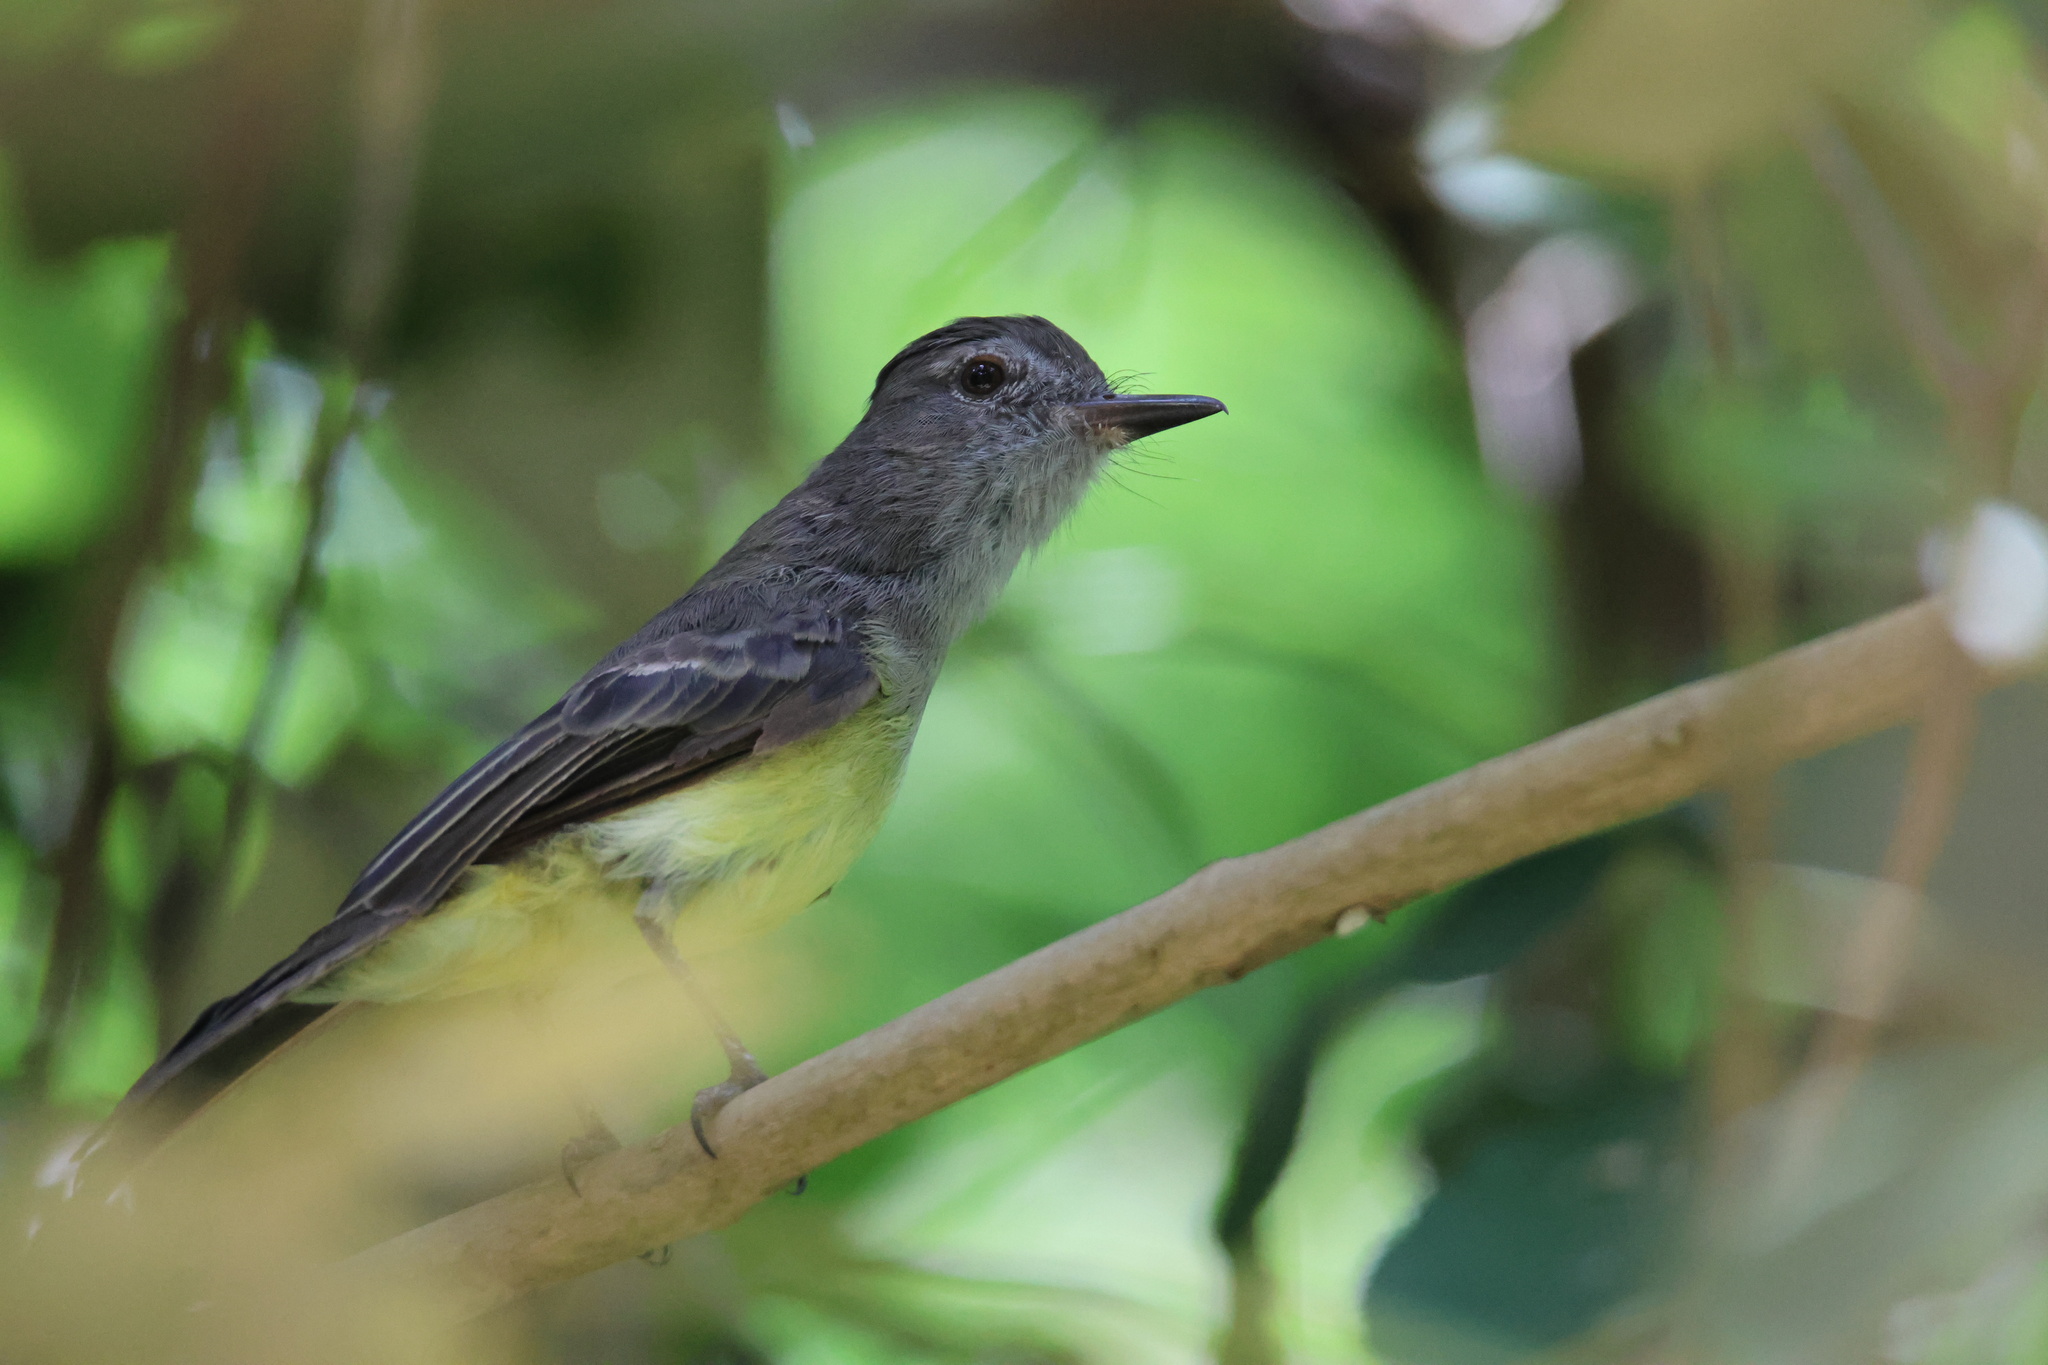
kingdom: Animalia
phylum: Chordata
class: Aves
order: Passeriformes
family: Tyrannidae
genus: Myiarchus
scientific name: Myiarchus panamensis
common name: Panama flycatcher
